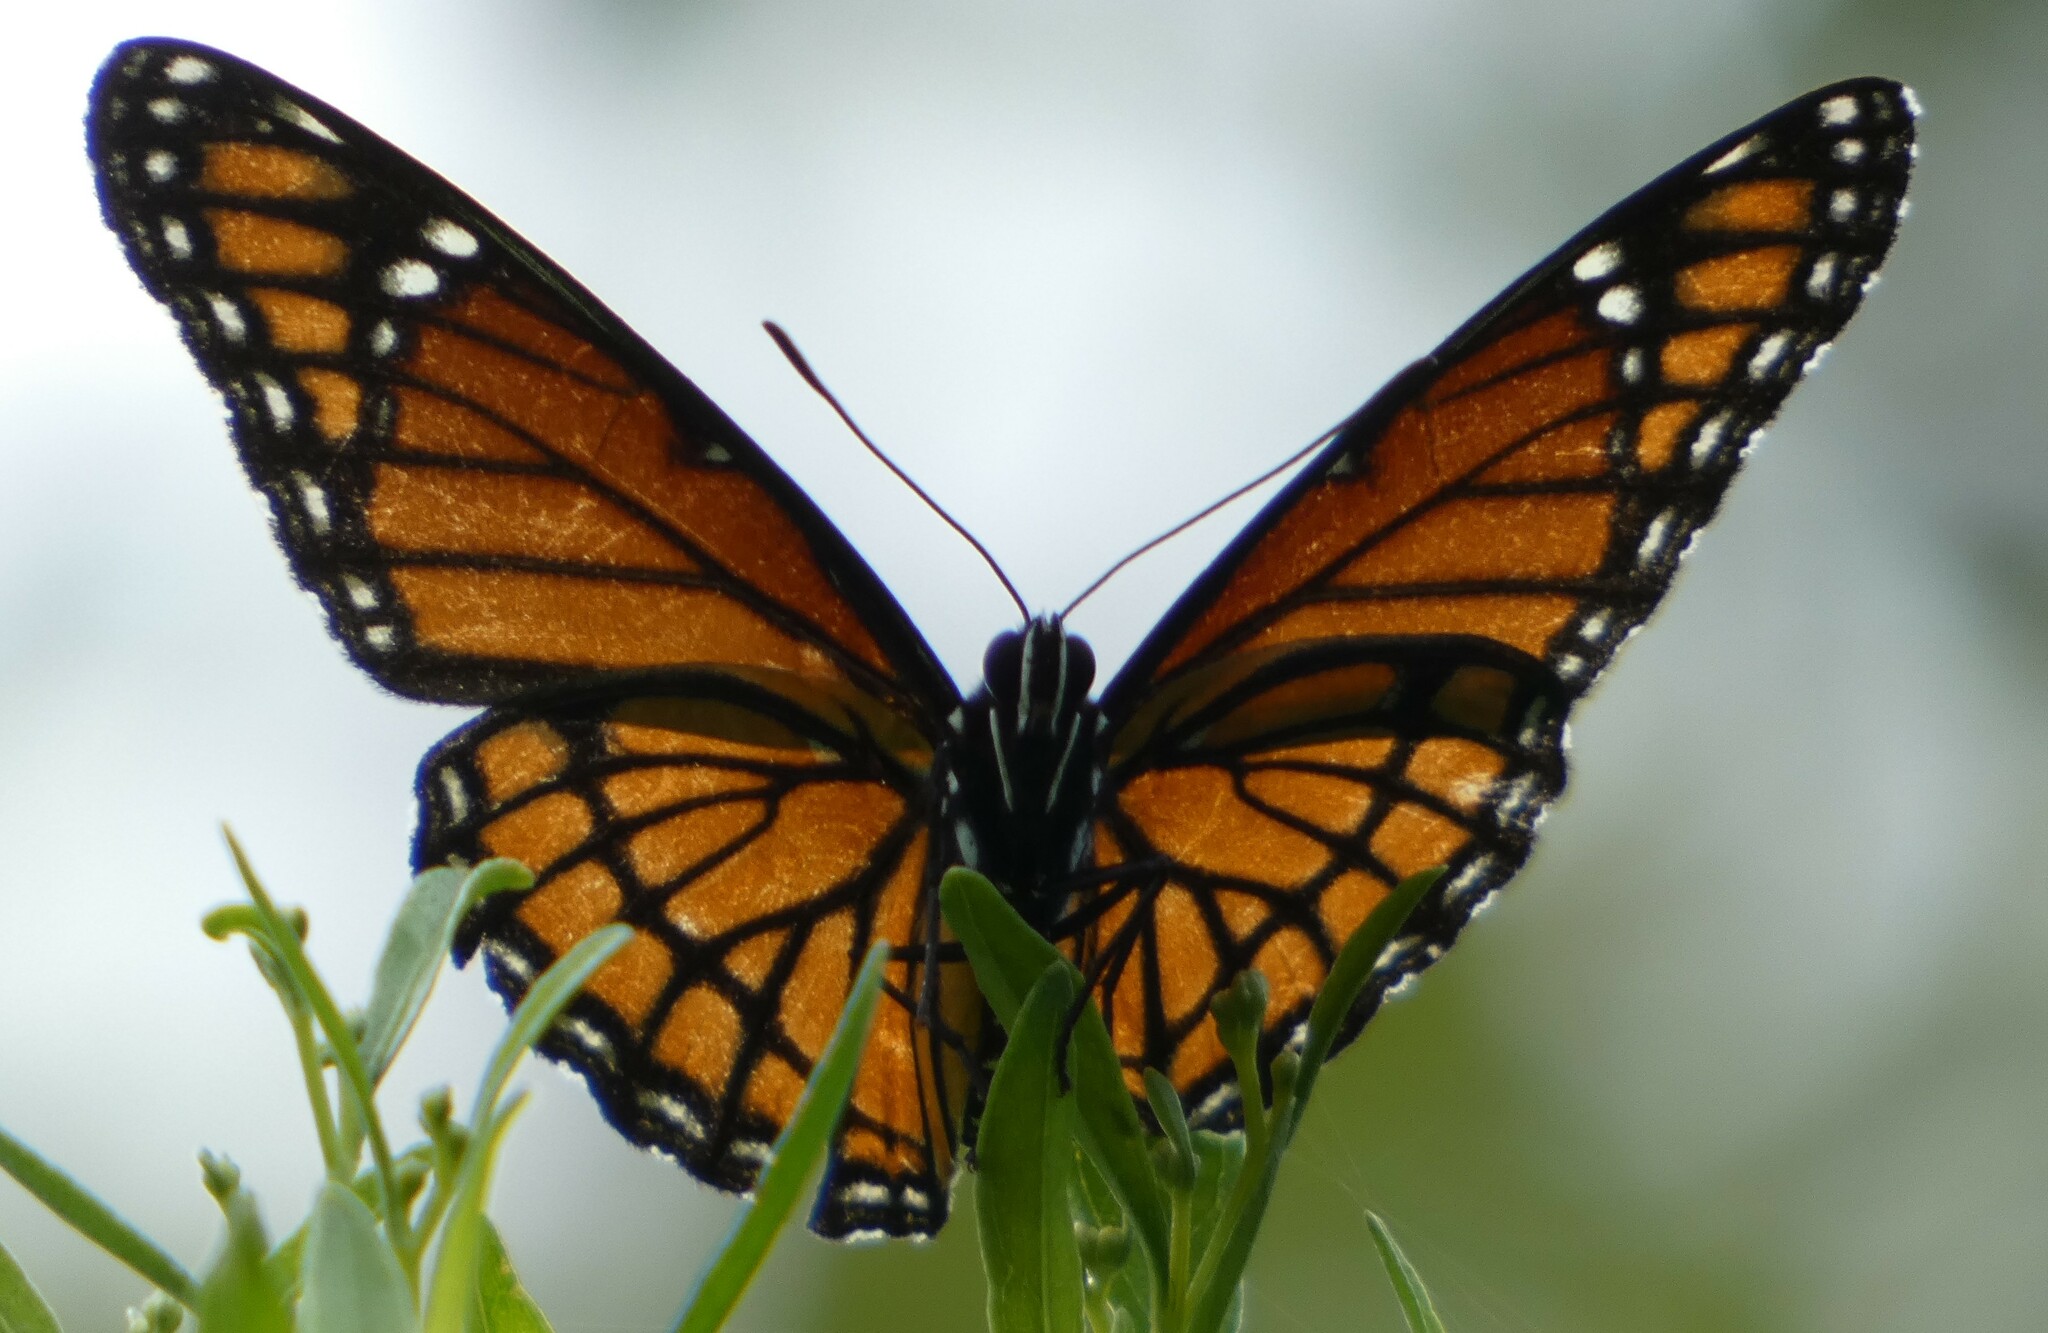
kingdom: Animalia
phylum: Arthropoda
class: Insecta
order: Lepidoptera
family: Nymphalidae
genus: Limenitis
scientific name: Limenitis archippus
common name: Viceroy
